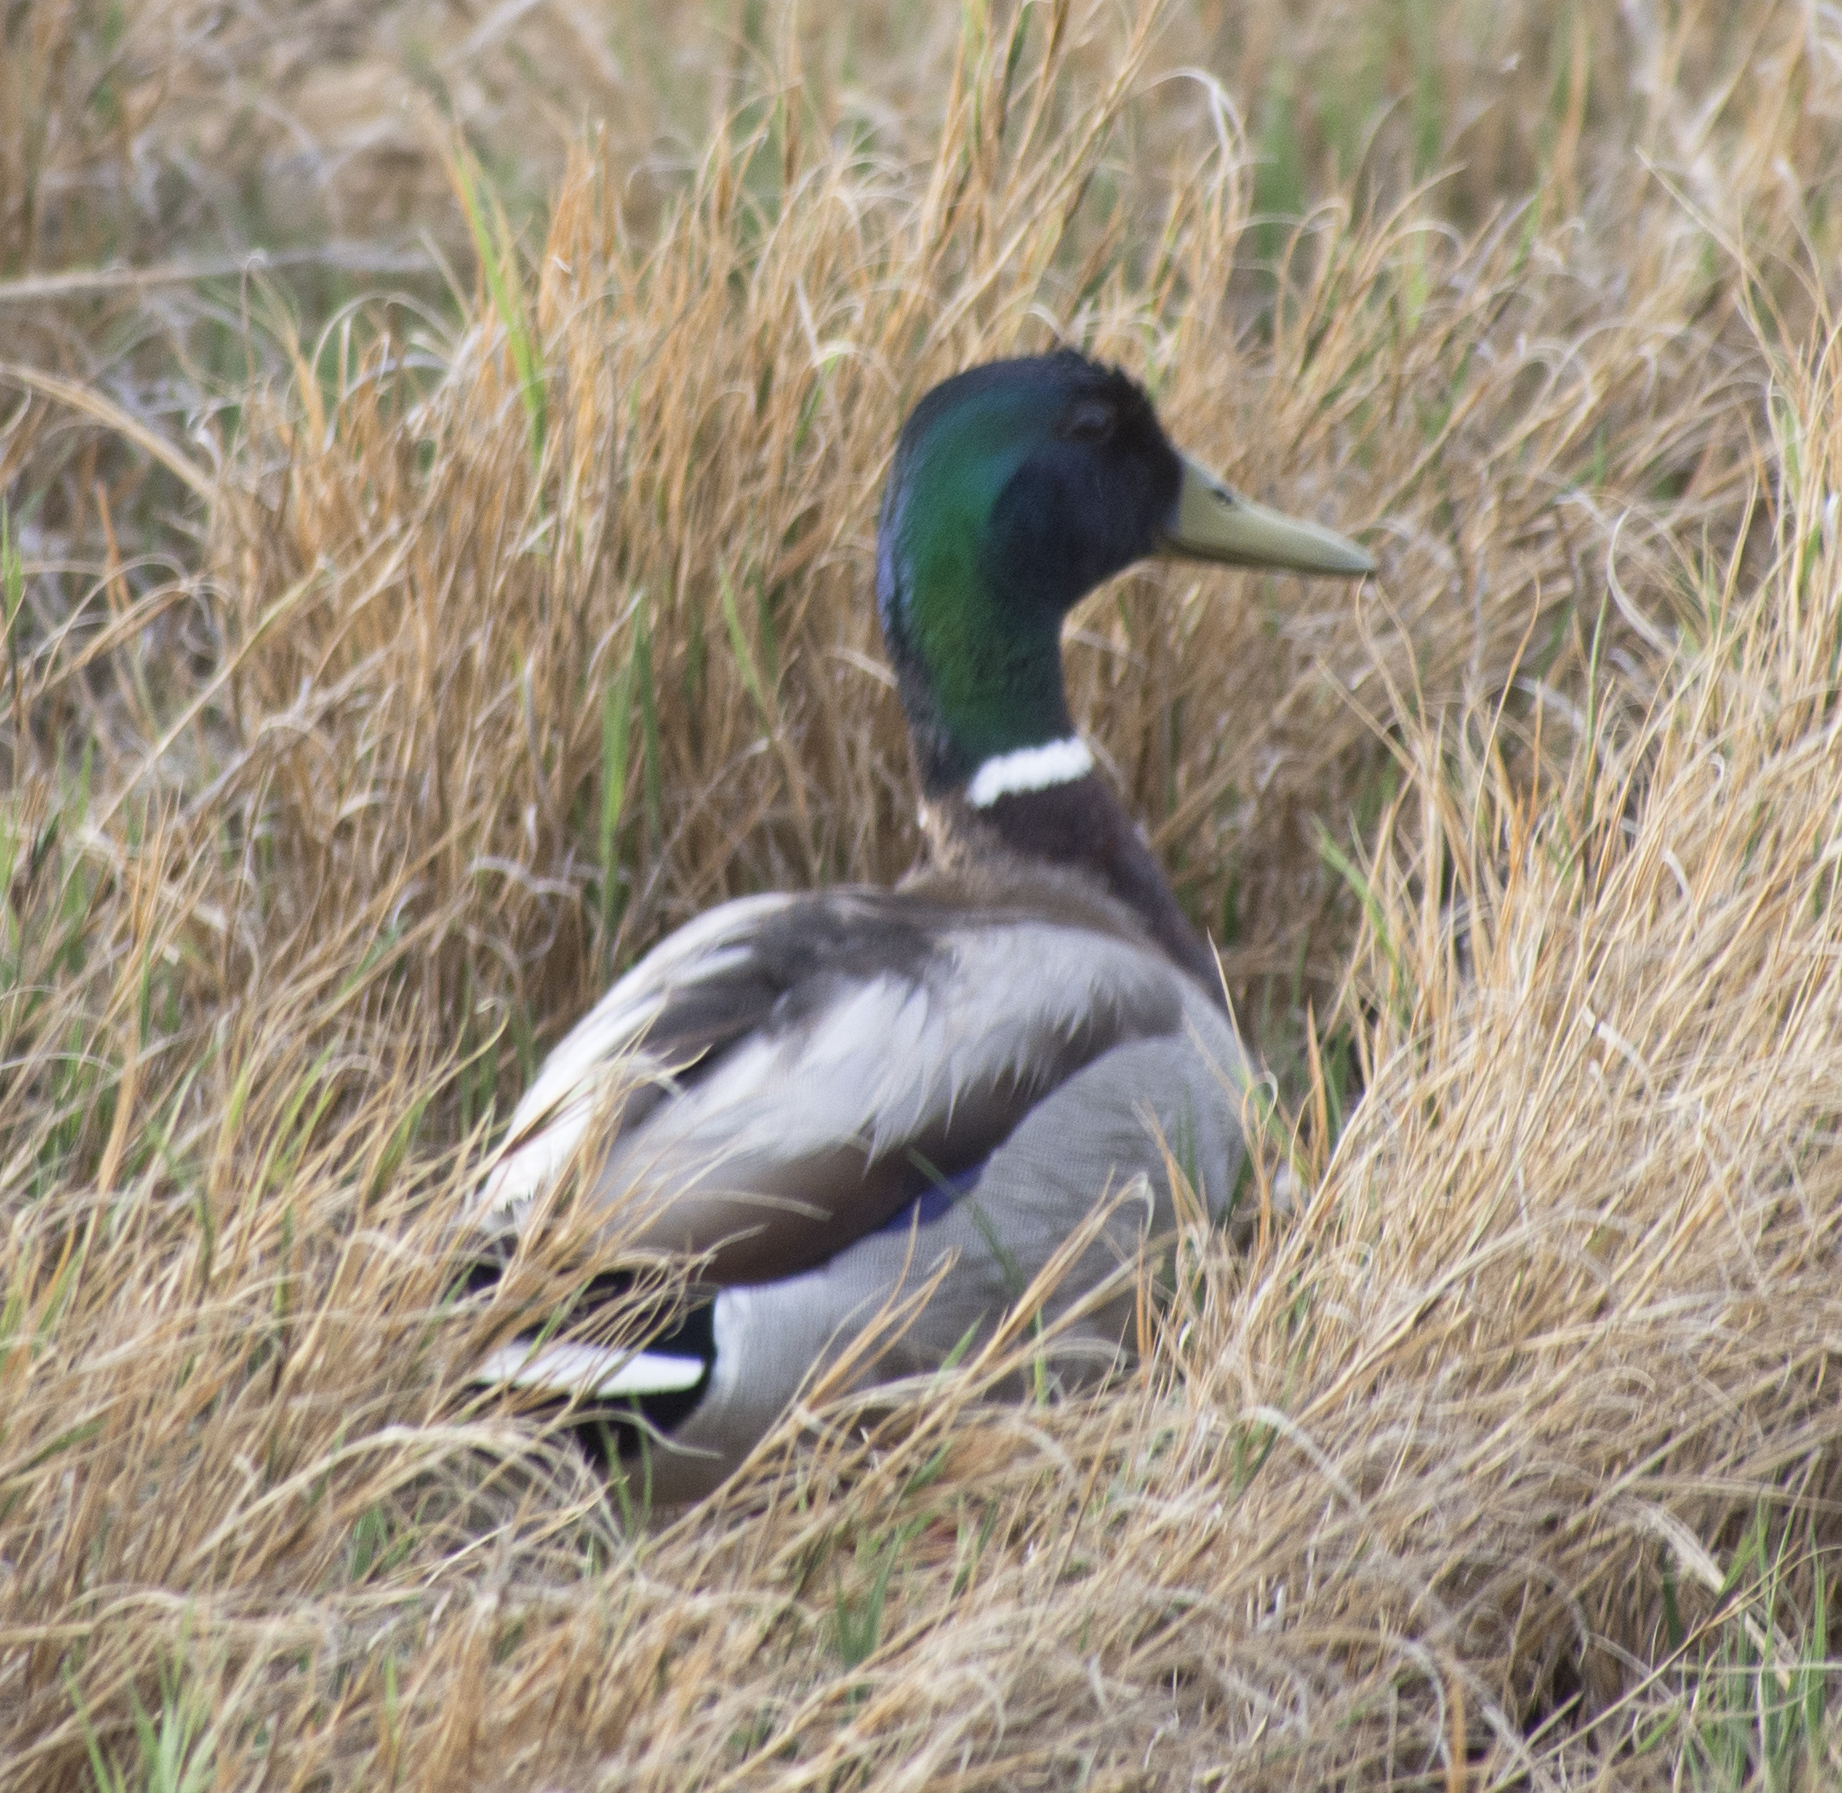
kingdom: Animalia
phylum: Chordata
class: Aves
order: Anseriformes
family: Anatidae
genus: Anas
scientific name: Anas platyrhynchos
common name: Mallard
